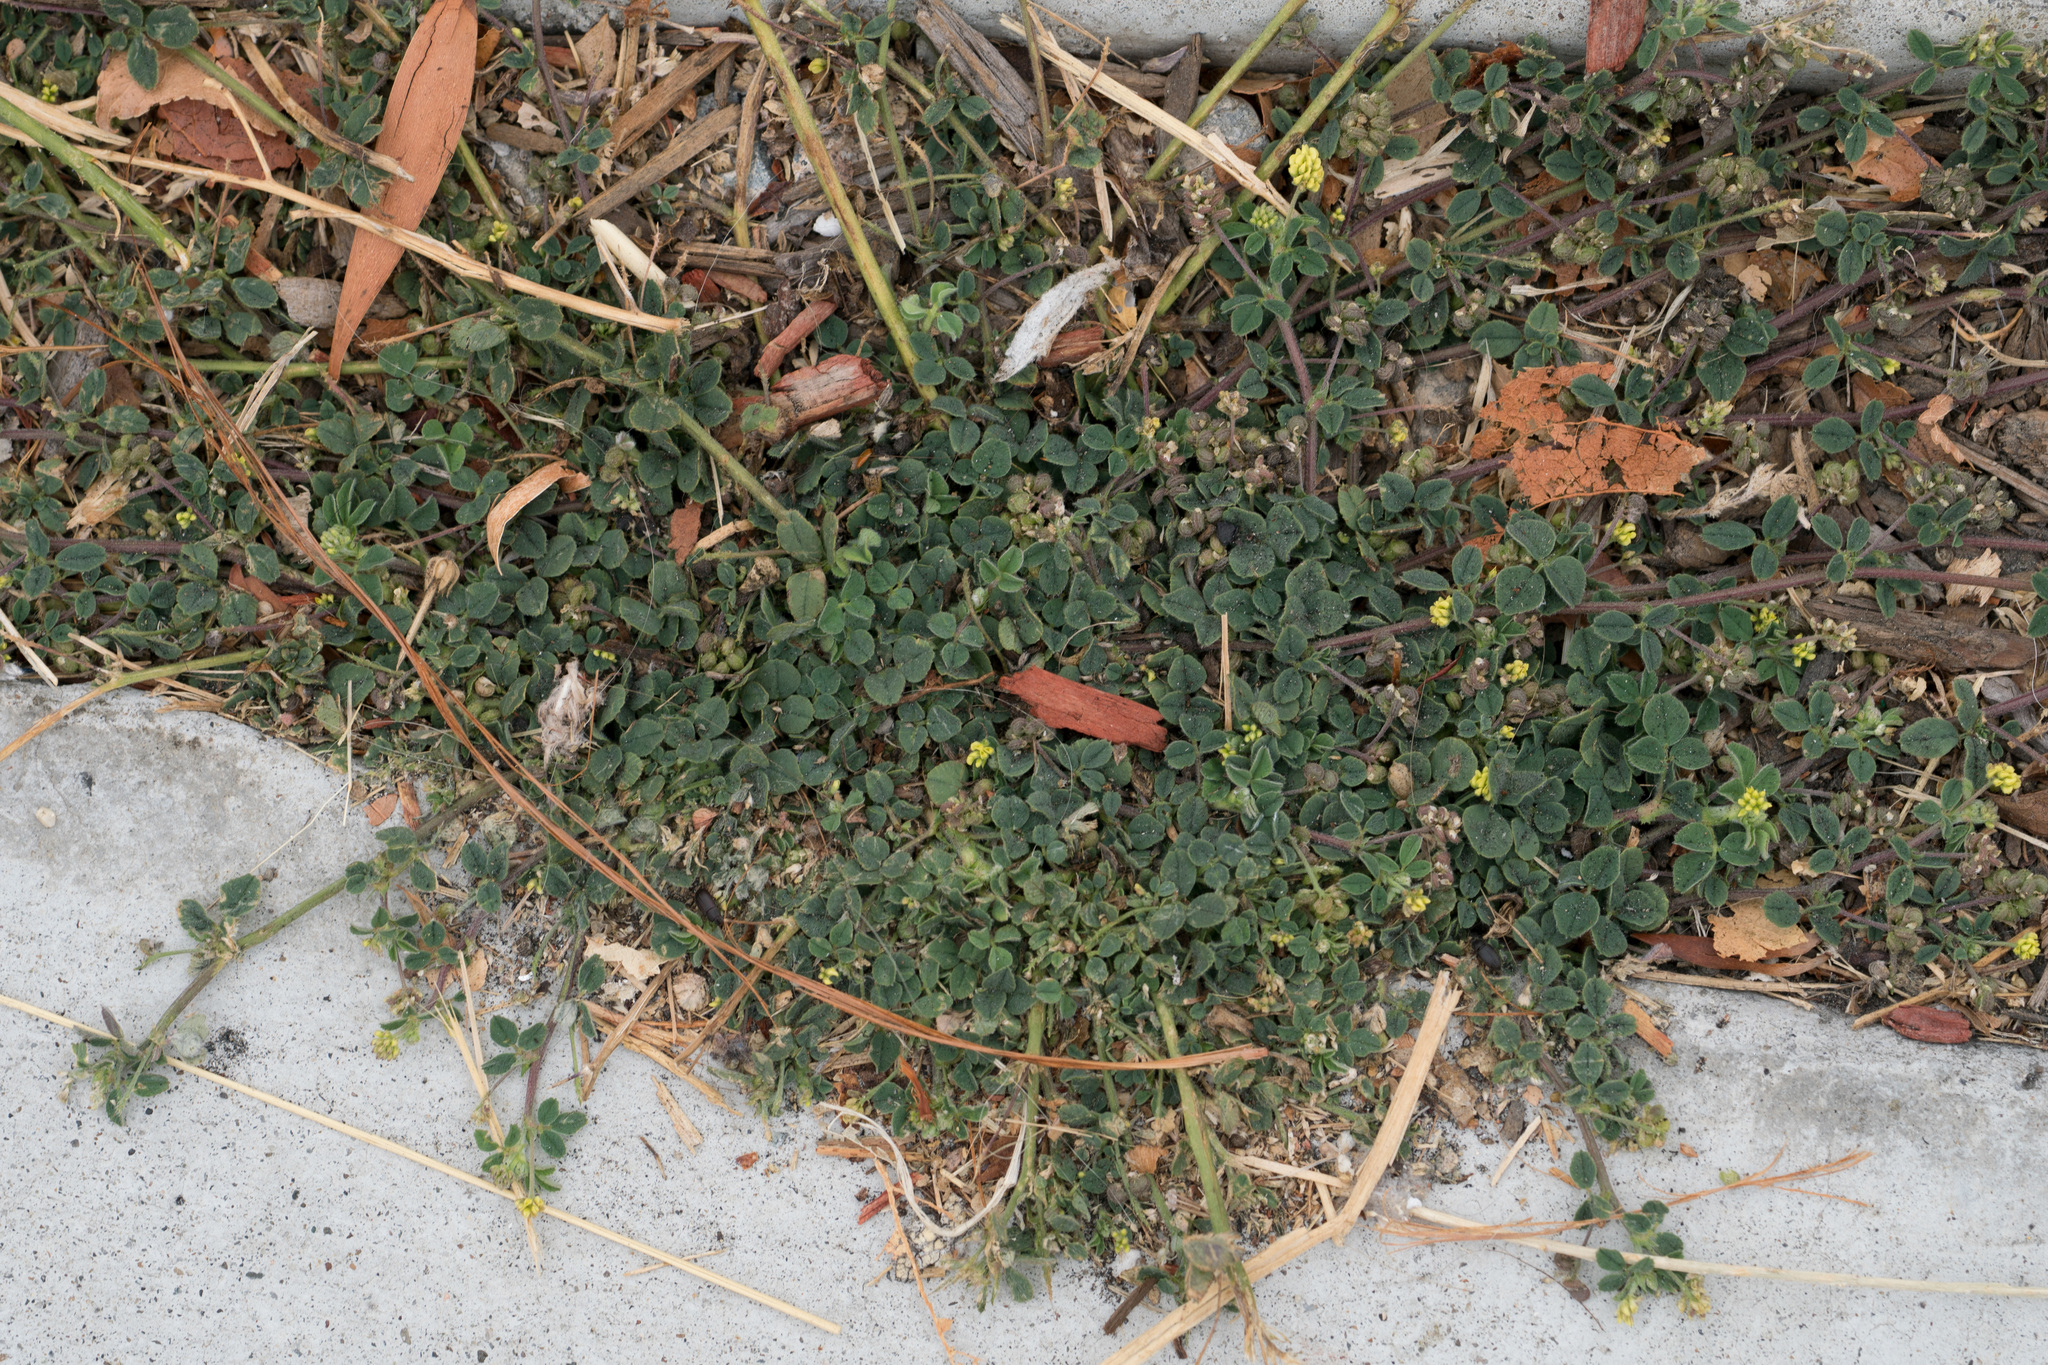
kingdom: Plantae
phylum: Tracheophyta
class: Magnoliopsida
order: Fabales
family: Fabaceae
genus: Medicago
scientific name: Medicago lupulina
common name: Black medick
